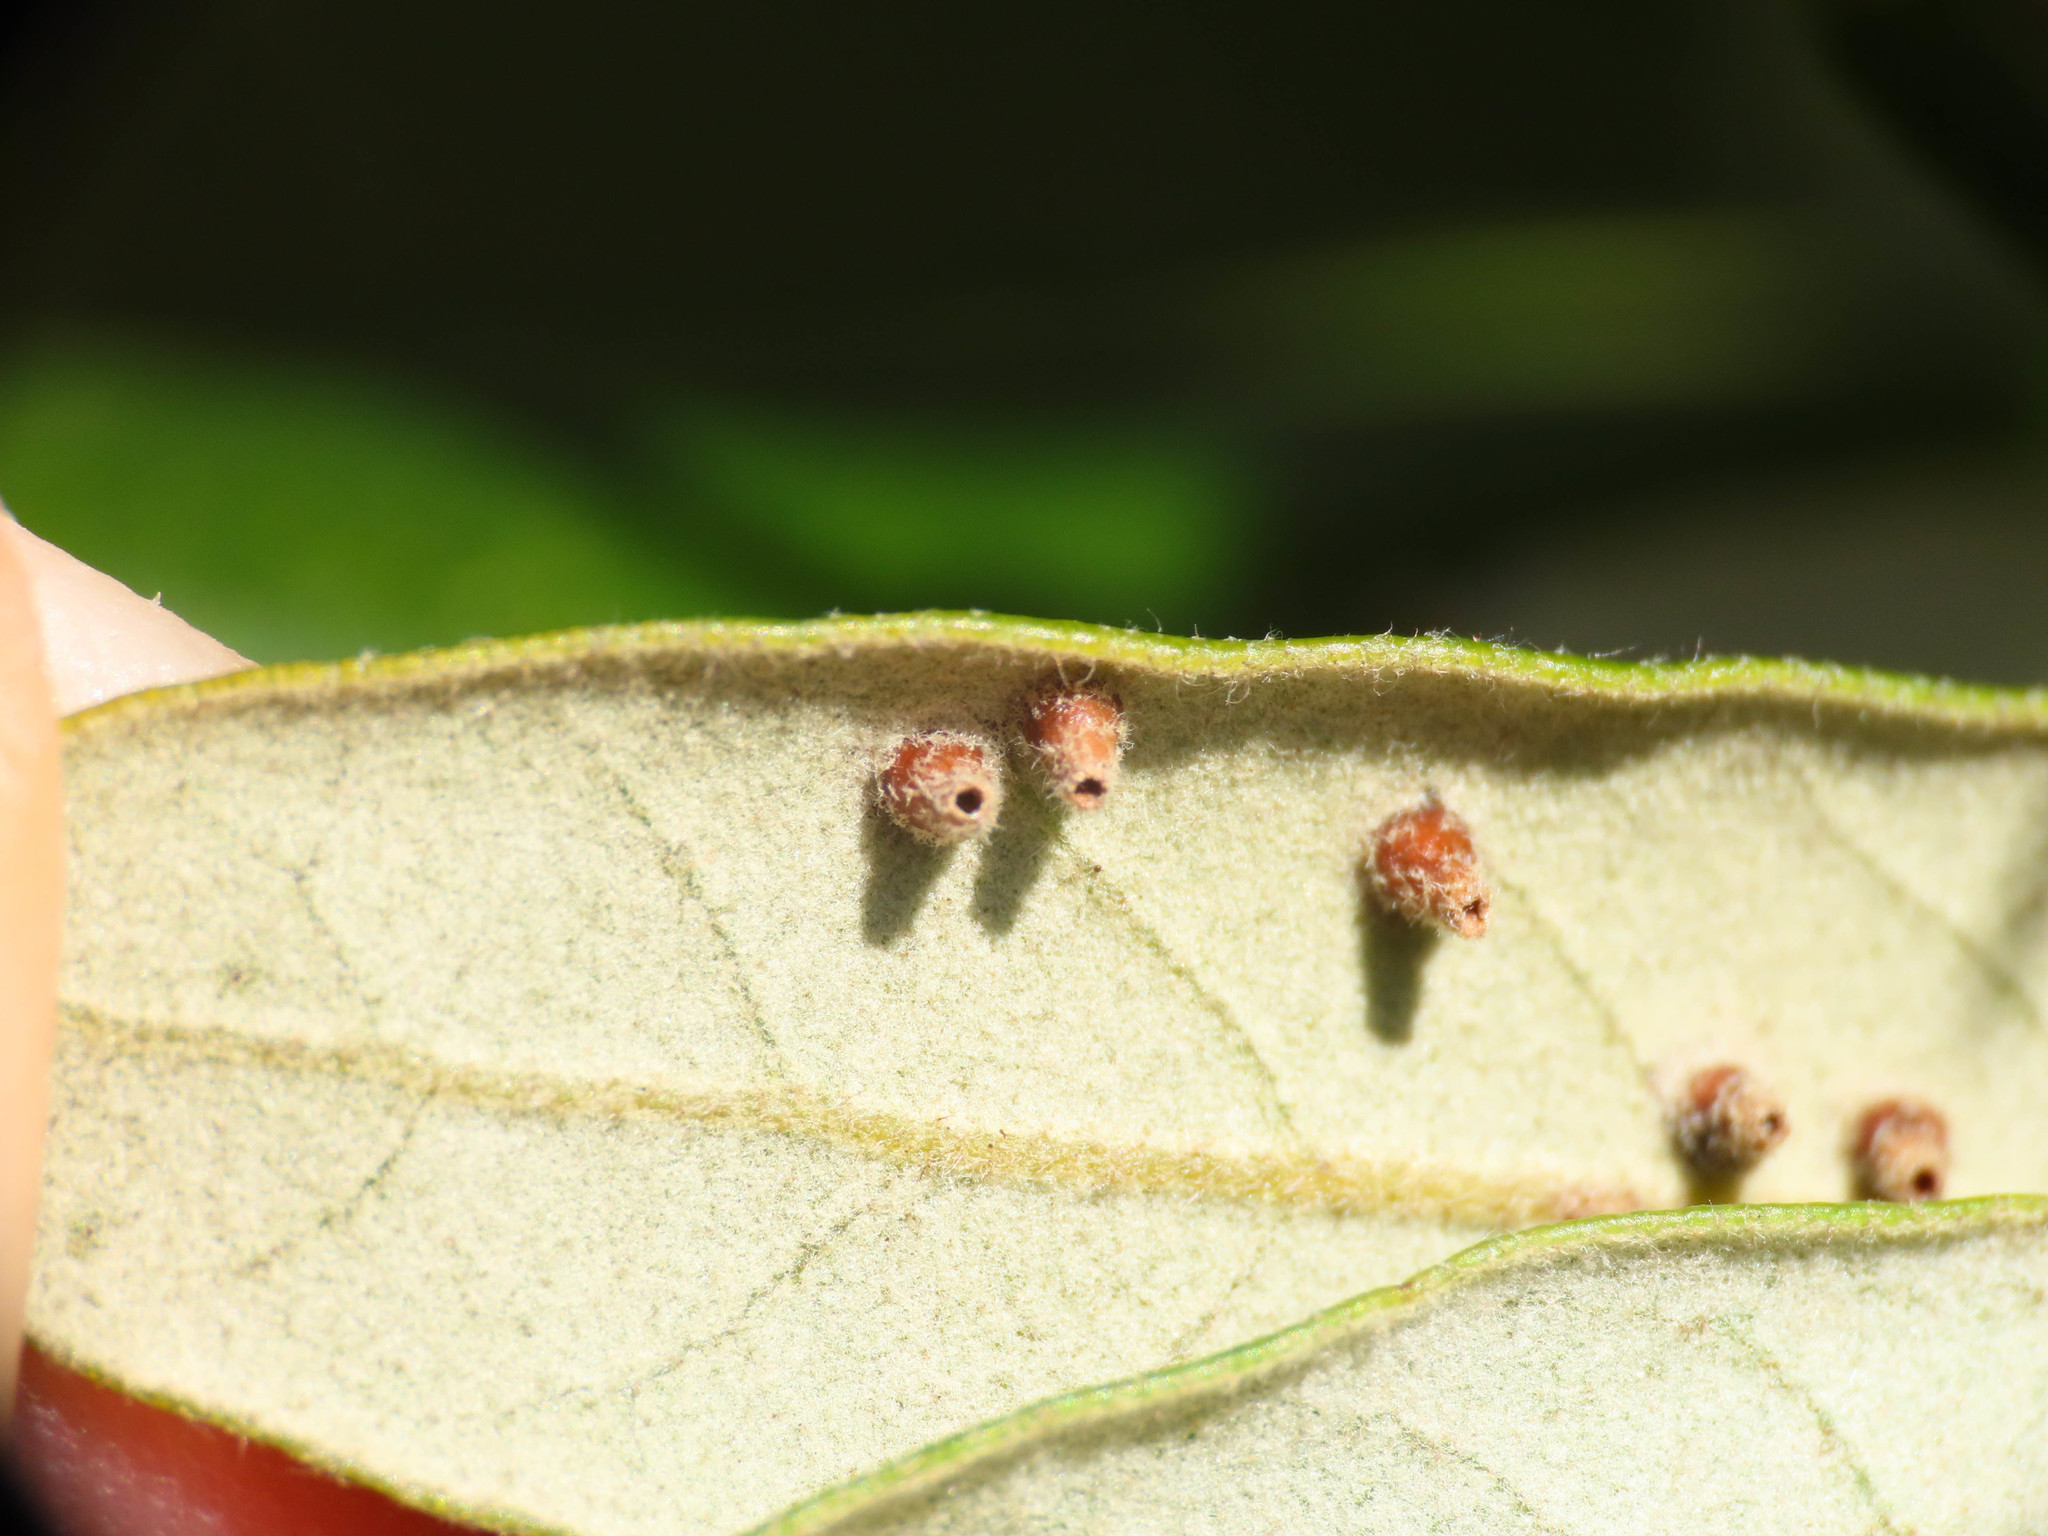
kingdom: Animalia
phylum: Arthropoda
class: Insecta
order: Diptera
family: Cecidomyiidae
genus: Contarinia
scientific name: Contarinia ilicis
